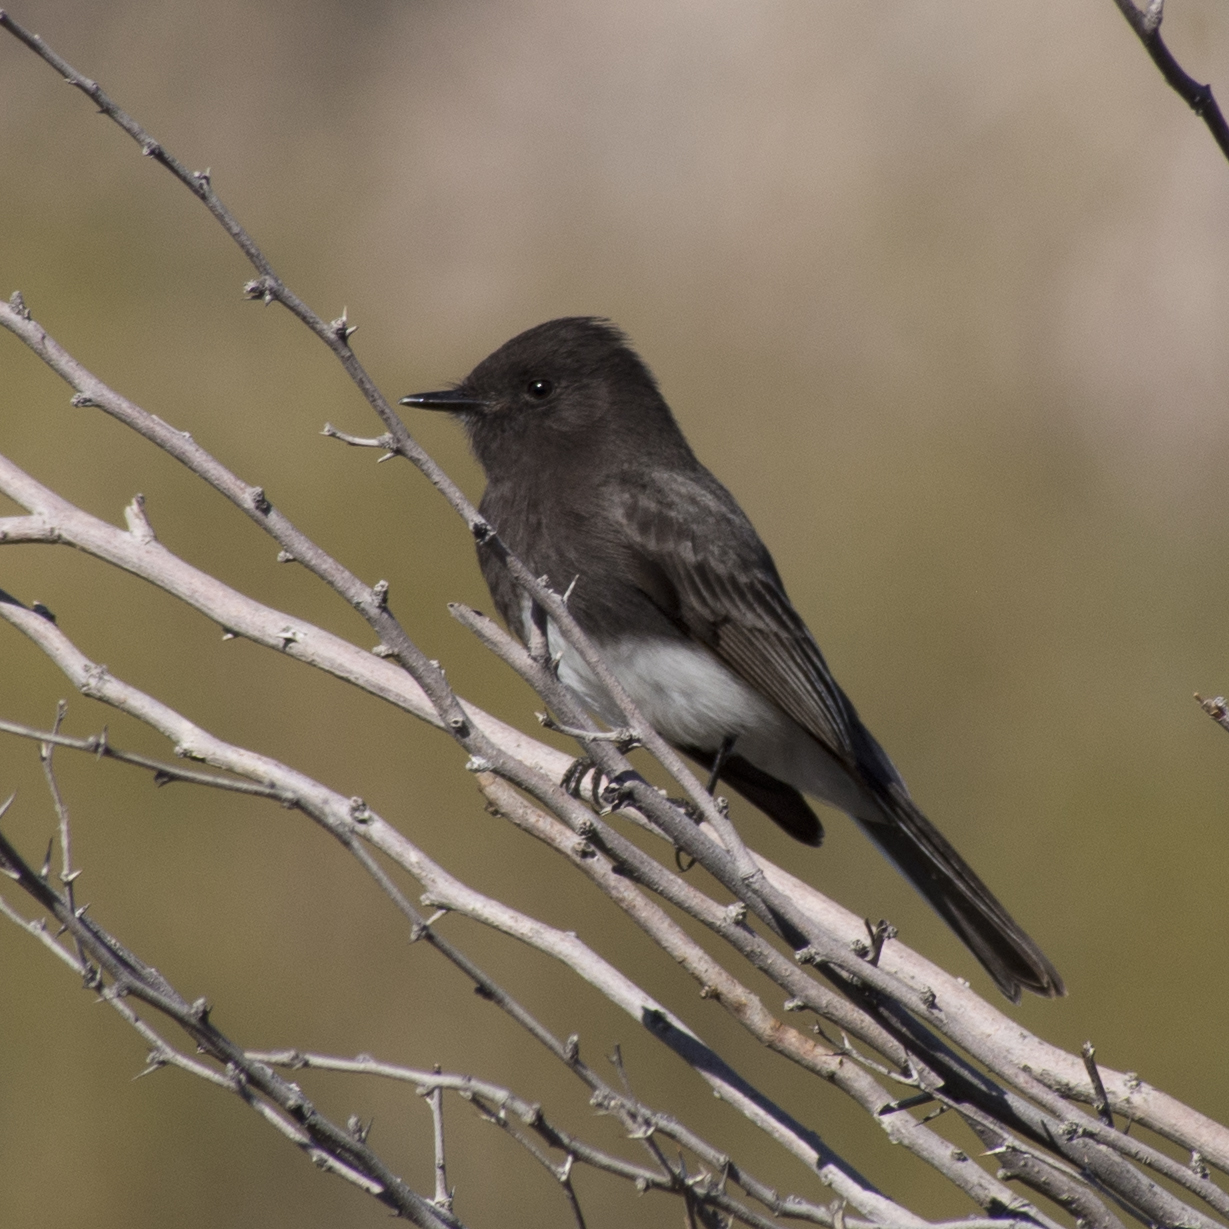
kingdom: Animalia
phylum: Chordata
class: Aves
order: Passeriformes
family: Tyrannidae
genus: Sayornis
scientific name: Sayornis nigricans
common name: Black phoebe
